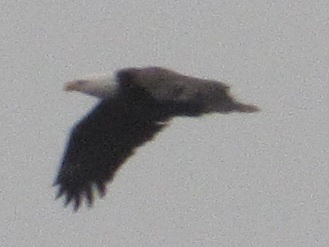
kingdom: Animalia
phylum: Chordata
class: Aves
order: Accipitriformes
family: Accipitridae
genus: Haliaeetus
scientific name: Haliaeetus leucocephalus
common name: Bald eagle
